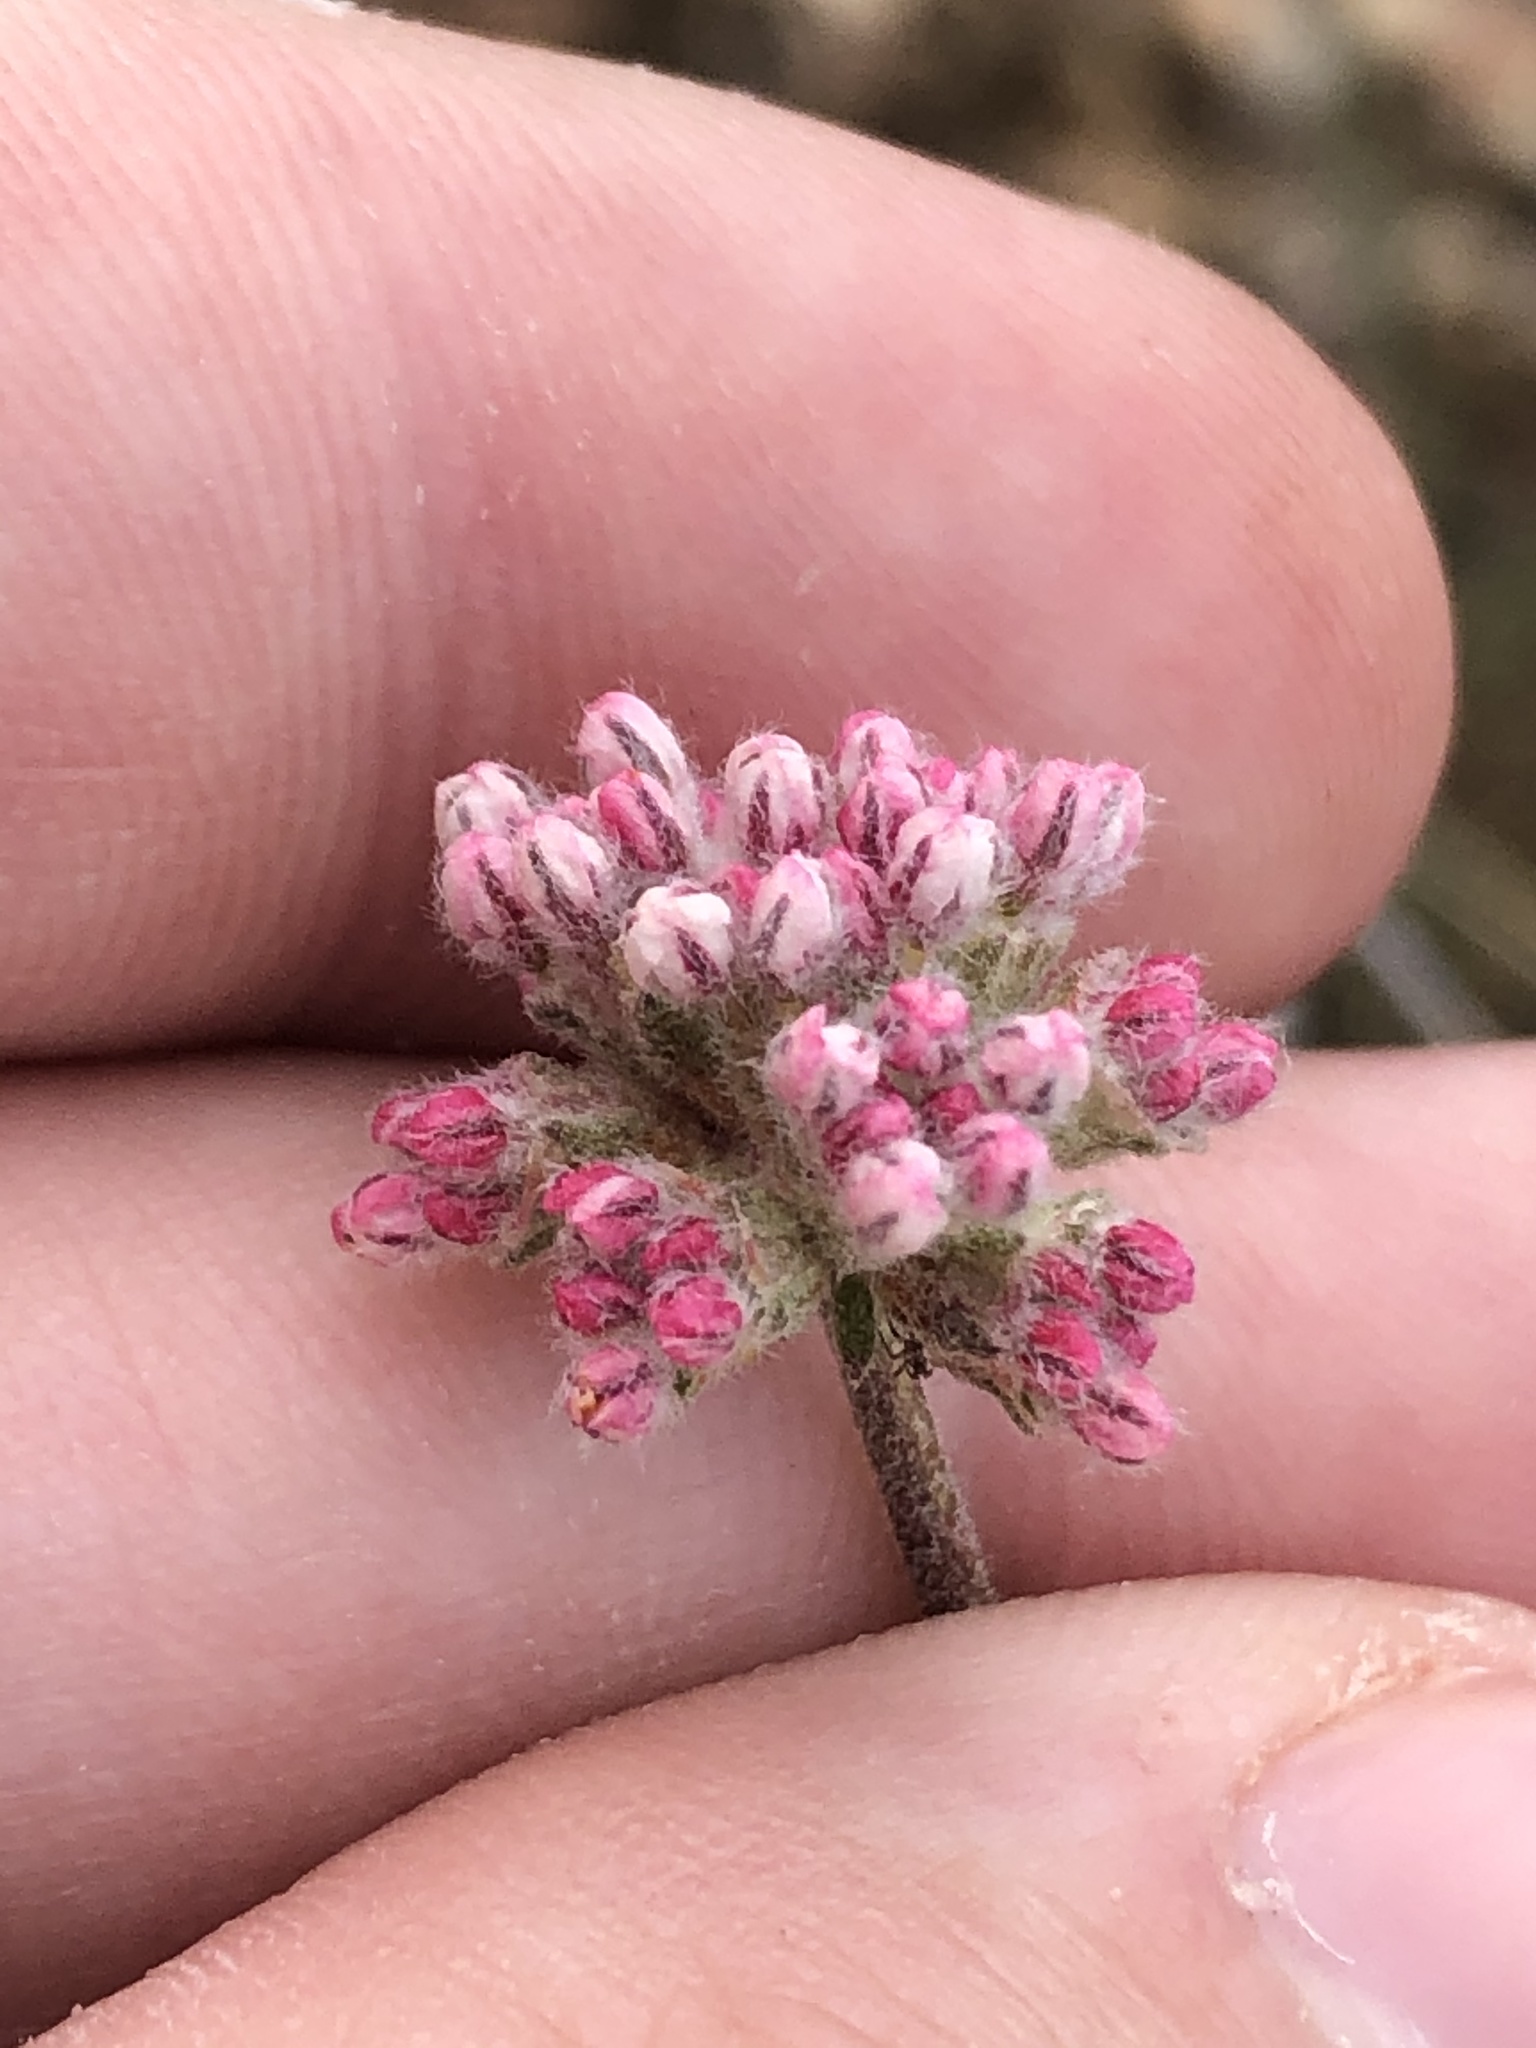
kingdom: Plantae
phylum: Tracheophyta
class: Magnoliopsida
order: Caryophyllales
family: Polygonaceae
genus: Eriogonum
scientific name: Eriogonum fasciculatum
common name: California wild buckwheat
